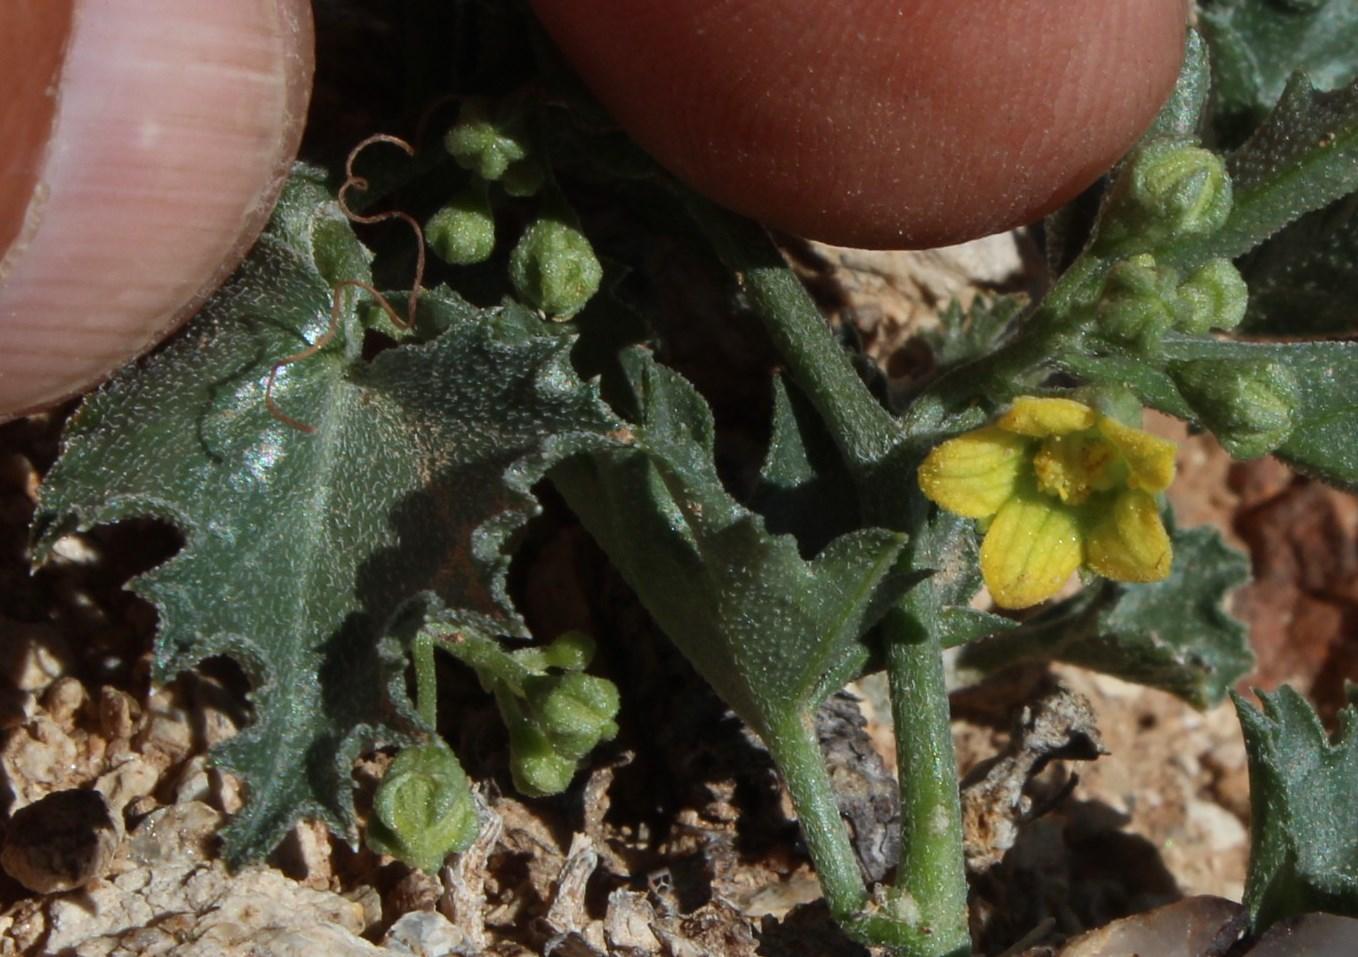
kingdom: Plantae
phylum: Tracheophyta
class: Magnoliopsida
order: Cucurbitales
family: Cucurbitaceae
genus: Kedrostis
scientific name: Kedrostis capensis
